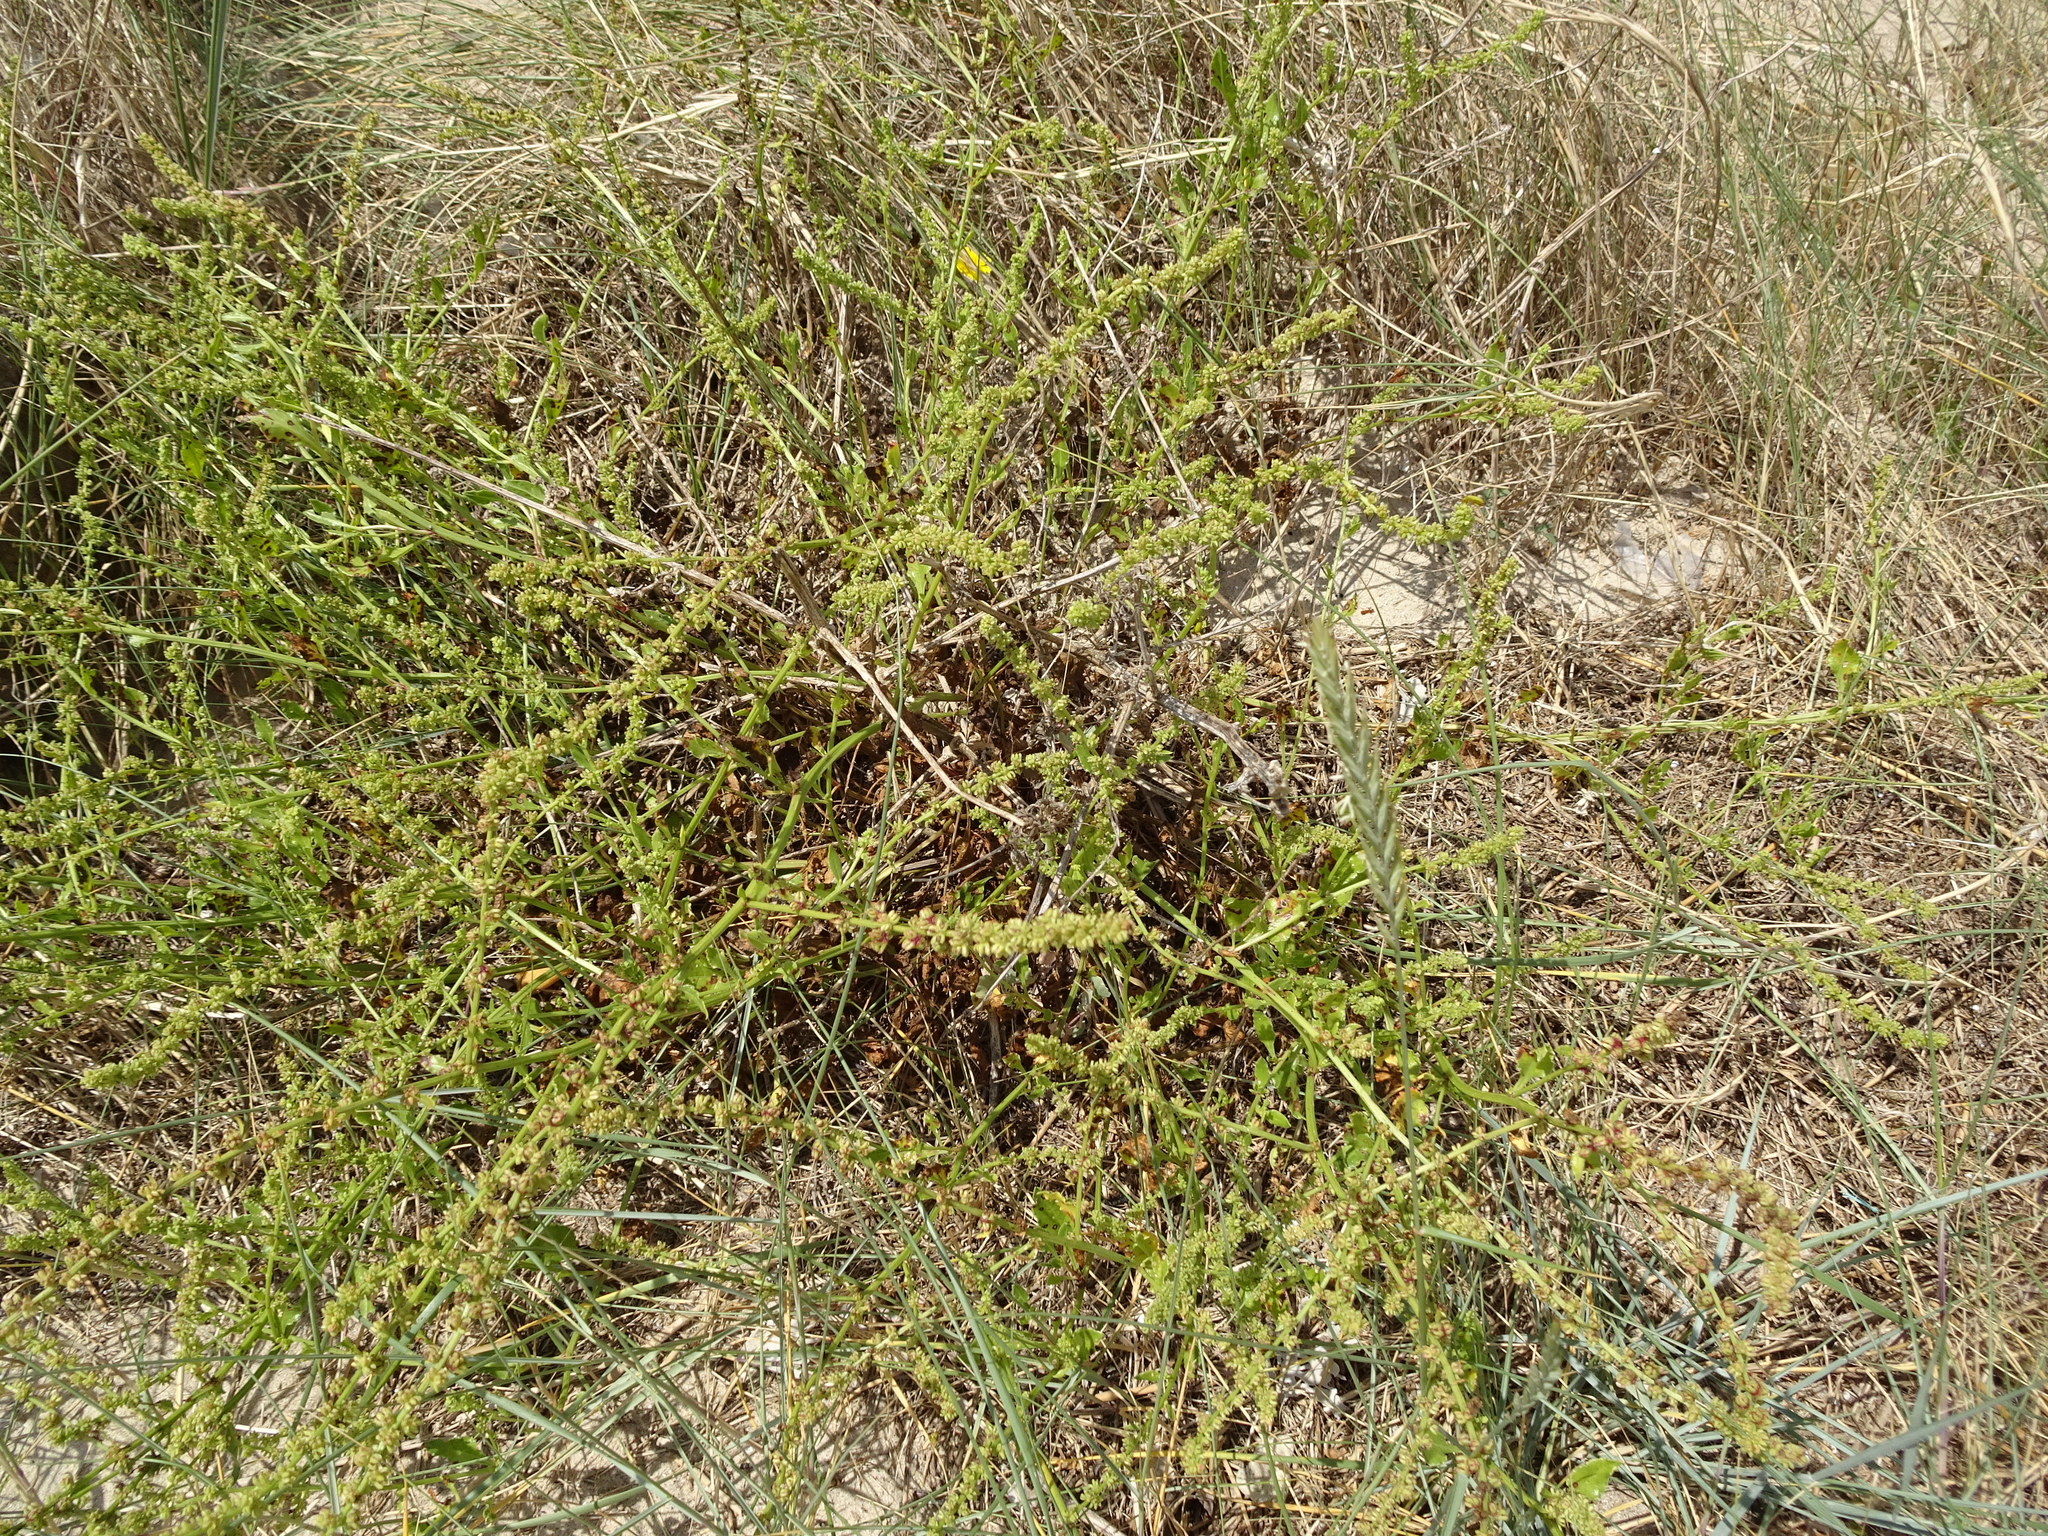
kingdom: Plantae
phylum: Tracheophyta
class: Magnoliopsida
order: Caryophyllales
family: Amaranthaceae
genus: Beta
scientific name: Beta vulgaris
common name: Beet
